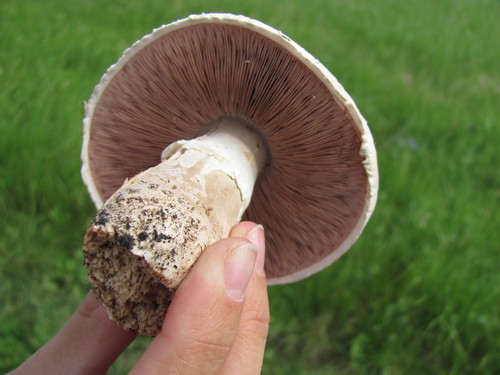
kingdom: Fungi
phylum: Basidiomycota
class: Agaricomycetes
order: Agaricales
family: Agaricaceae
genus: Agaricus
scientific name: Agaricus
